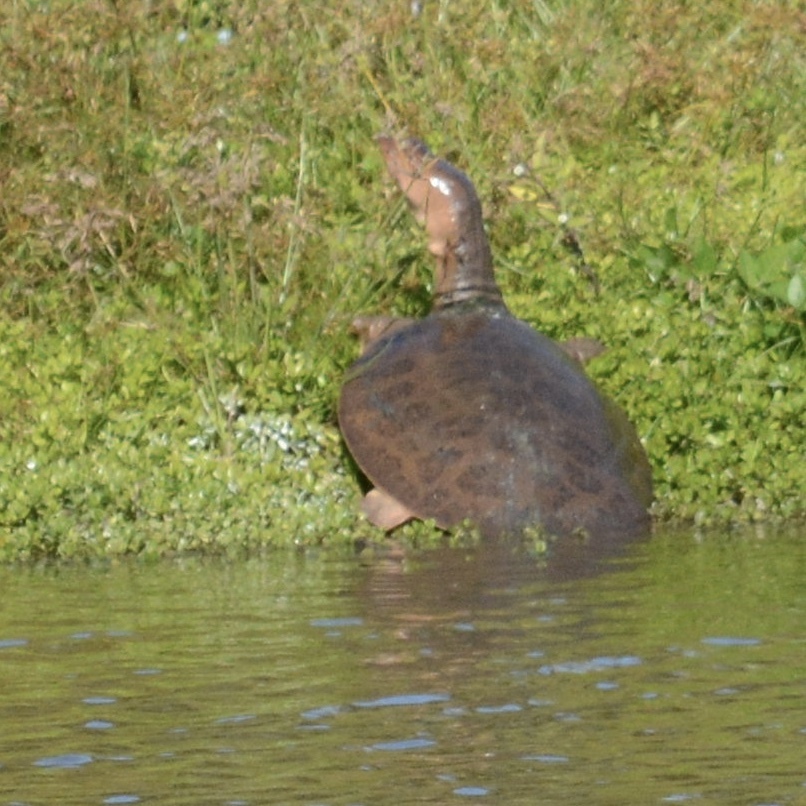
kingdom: Animalia
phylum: Chordata
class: Testudines
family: Trionychidae
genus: Apalone
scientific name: Apalone ferox
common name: Florida softshell turtle
